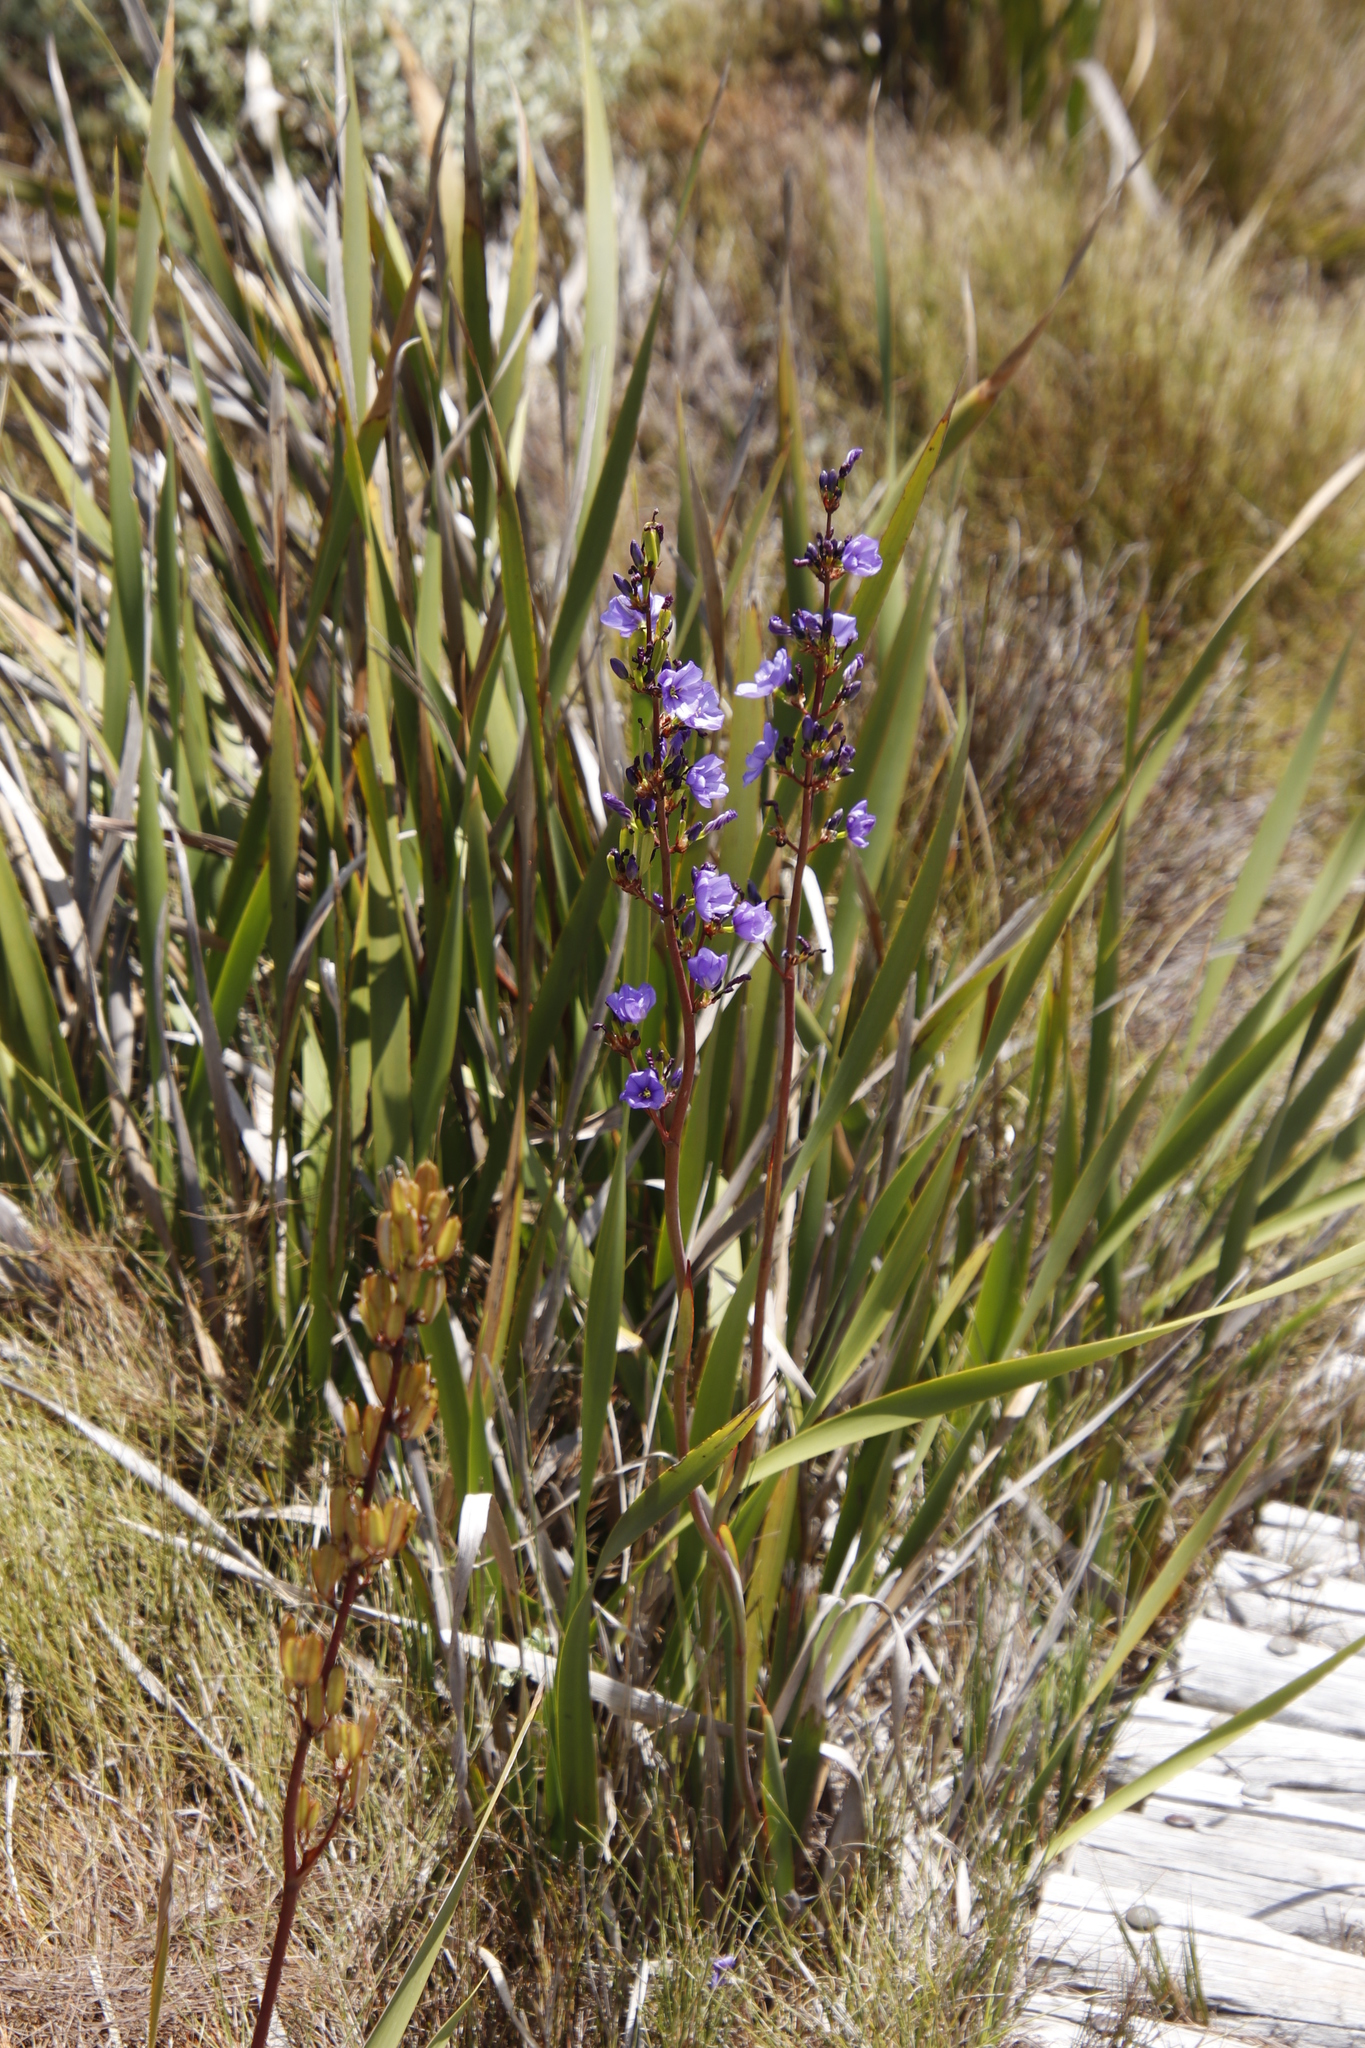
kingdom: Plantae
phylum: Tracheophyta
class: Liliopsida
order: Asparagales
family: Iridaceae
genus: Aristea
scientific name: Aristea bakeri
